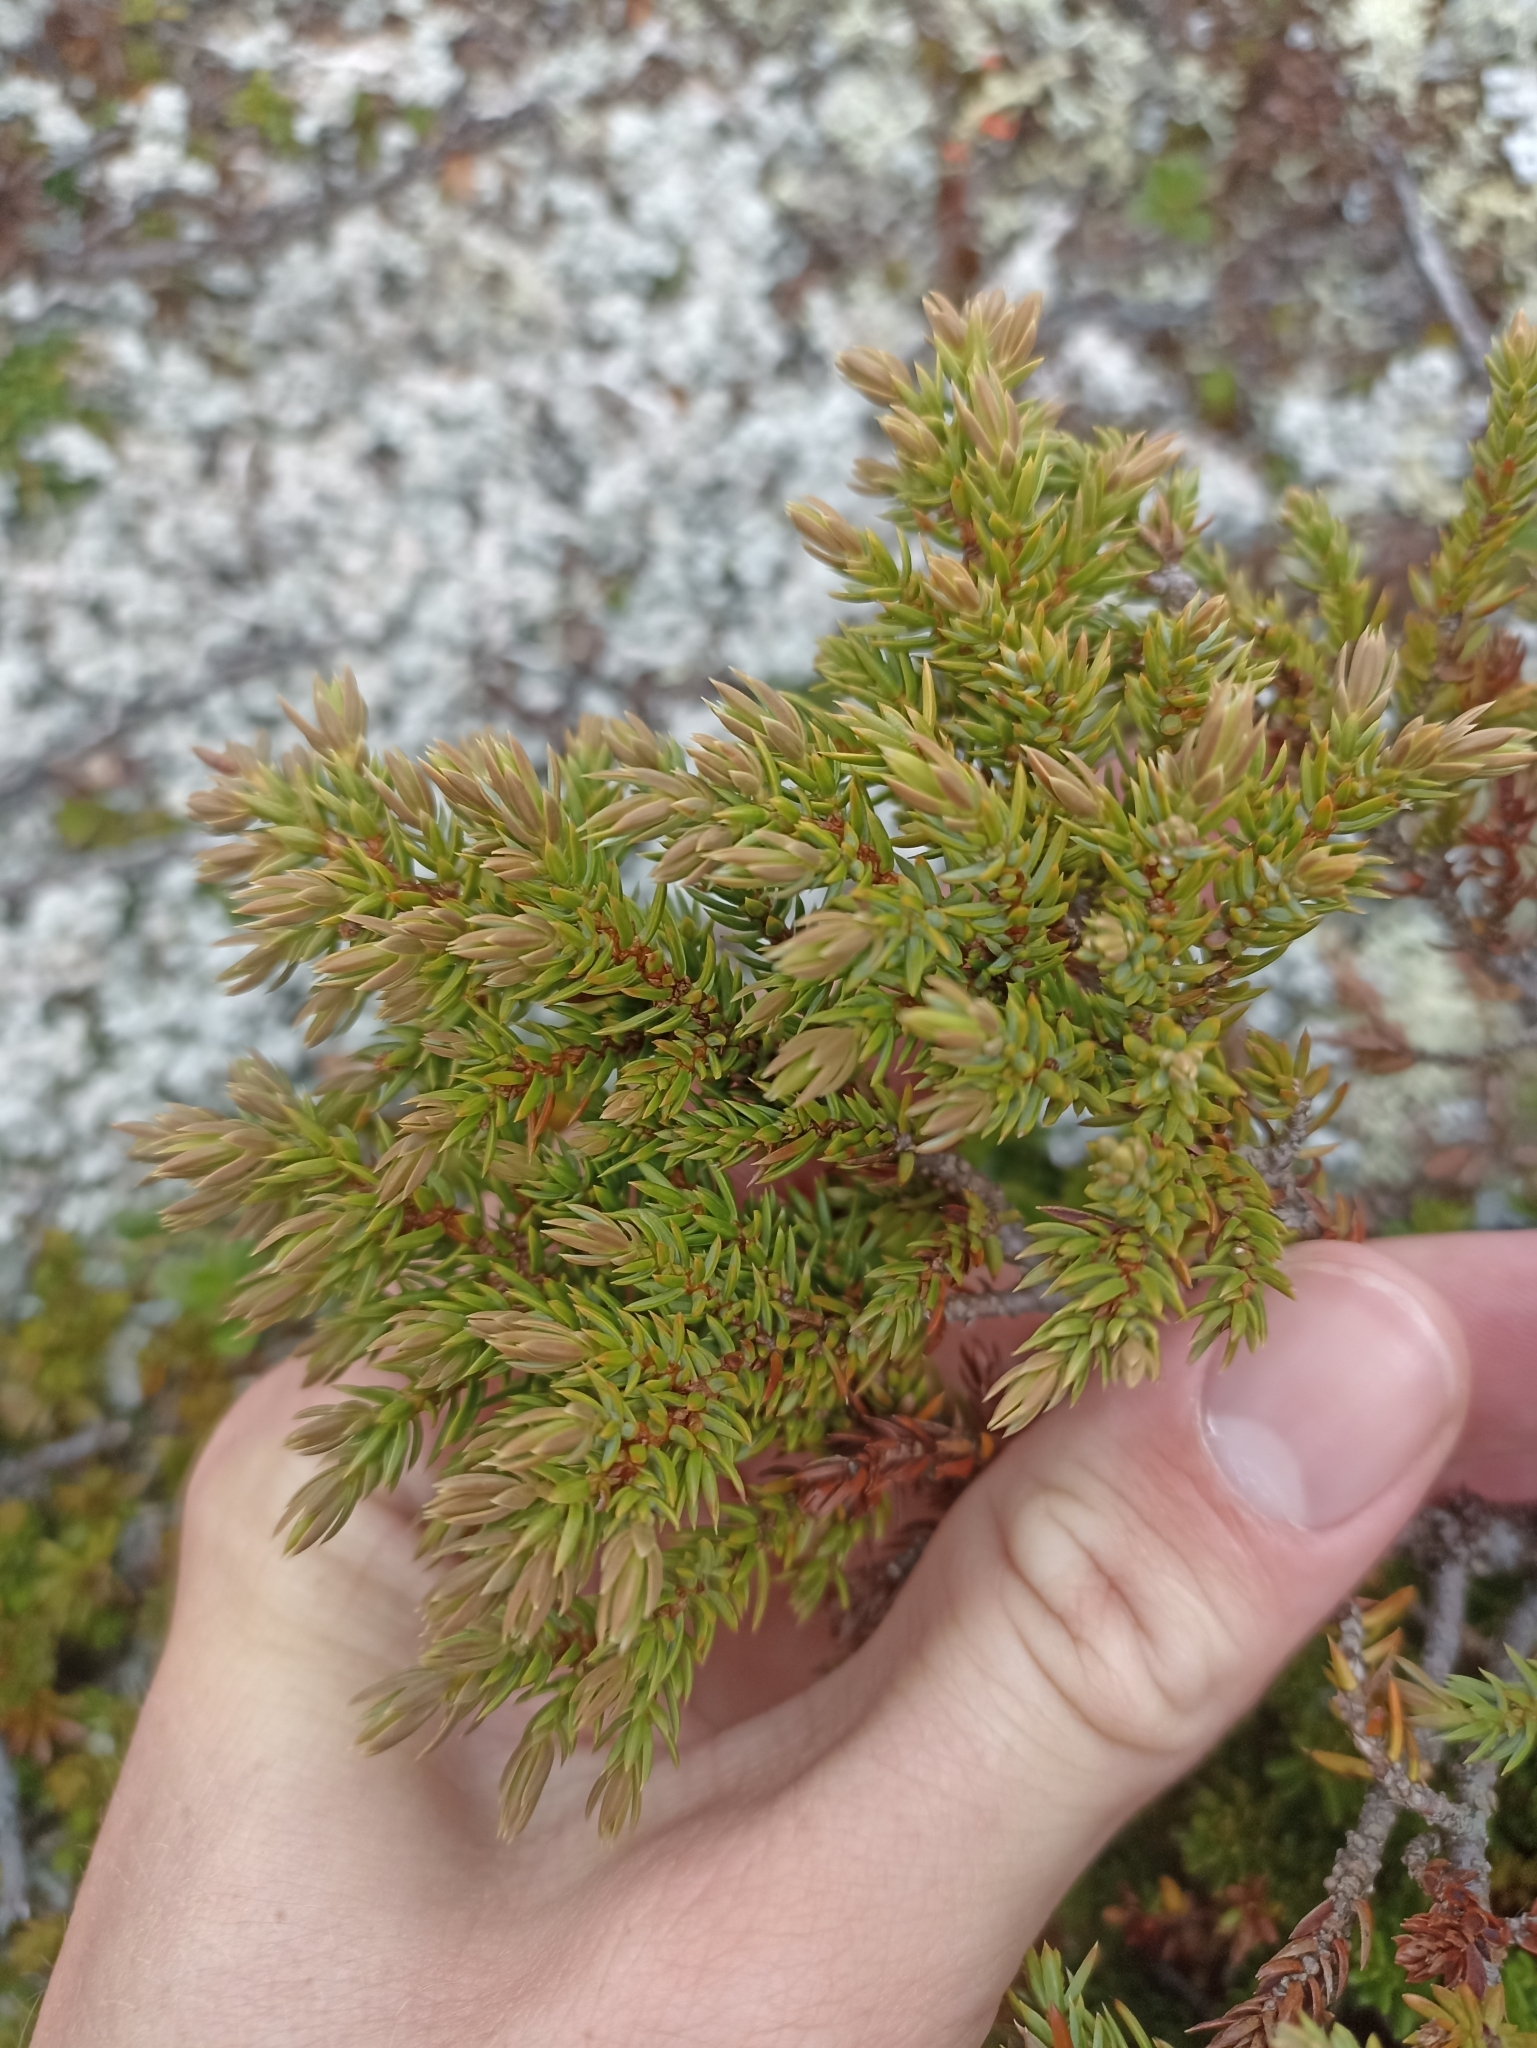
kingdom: Plantae
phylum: Tracheophyta
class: Pinopsida
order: Pinales
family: Cupressaceae
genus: Juniperus
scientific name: Juniperus communis
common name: Common juniper
